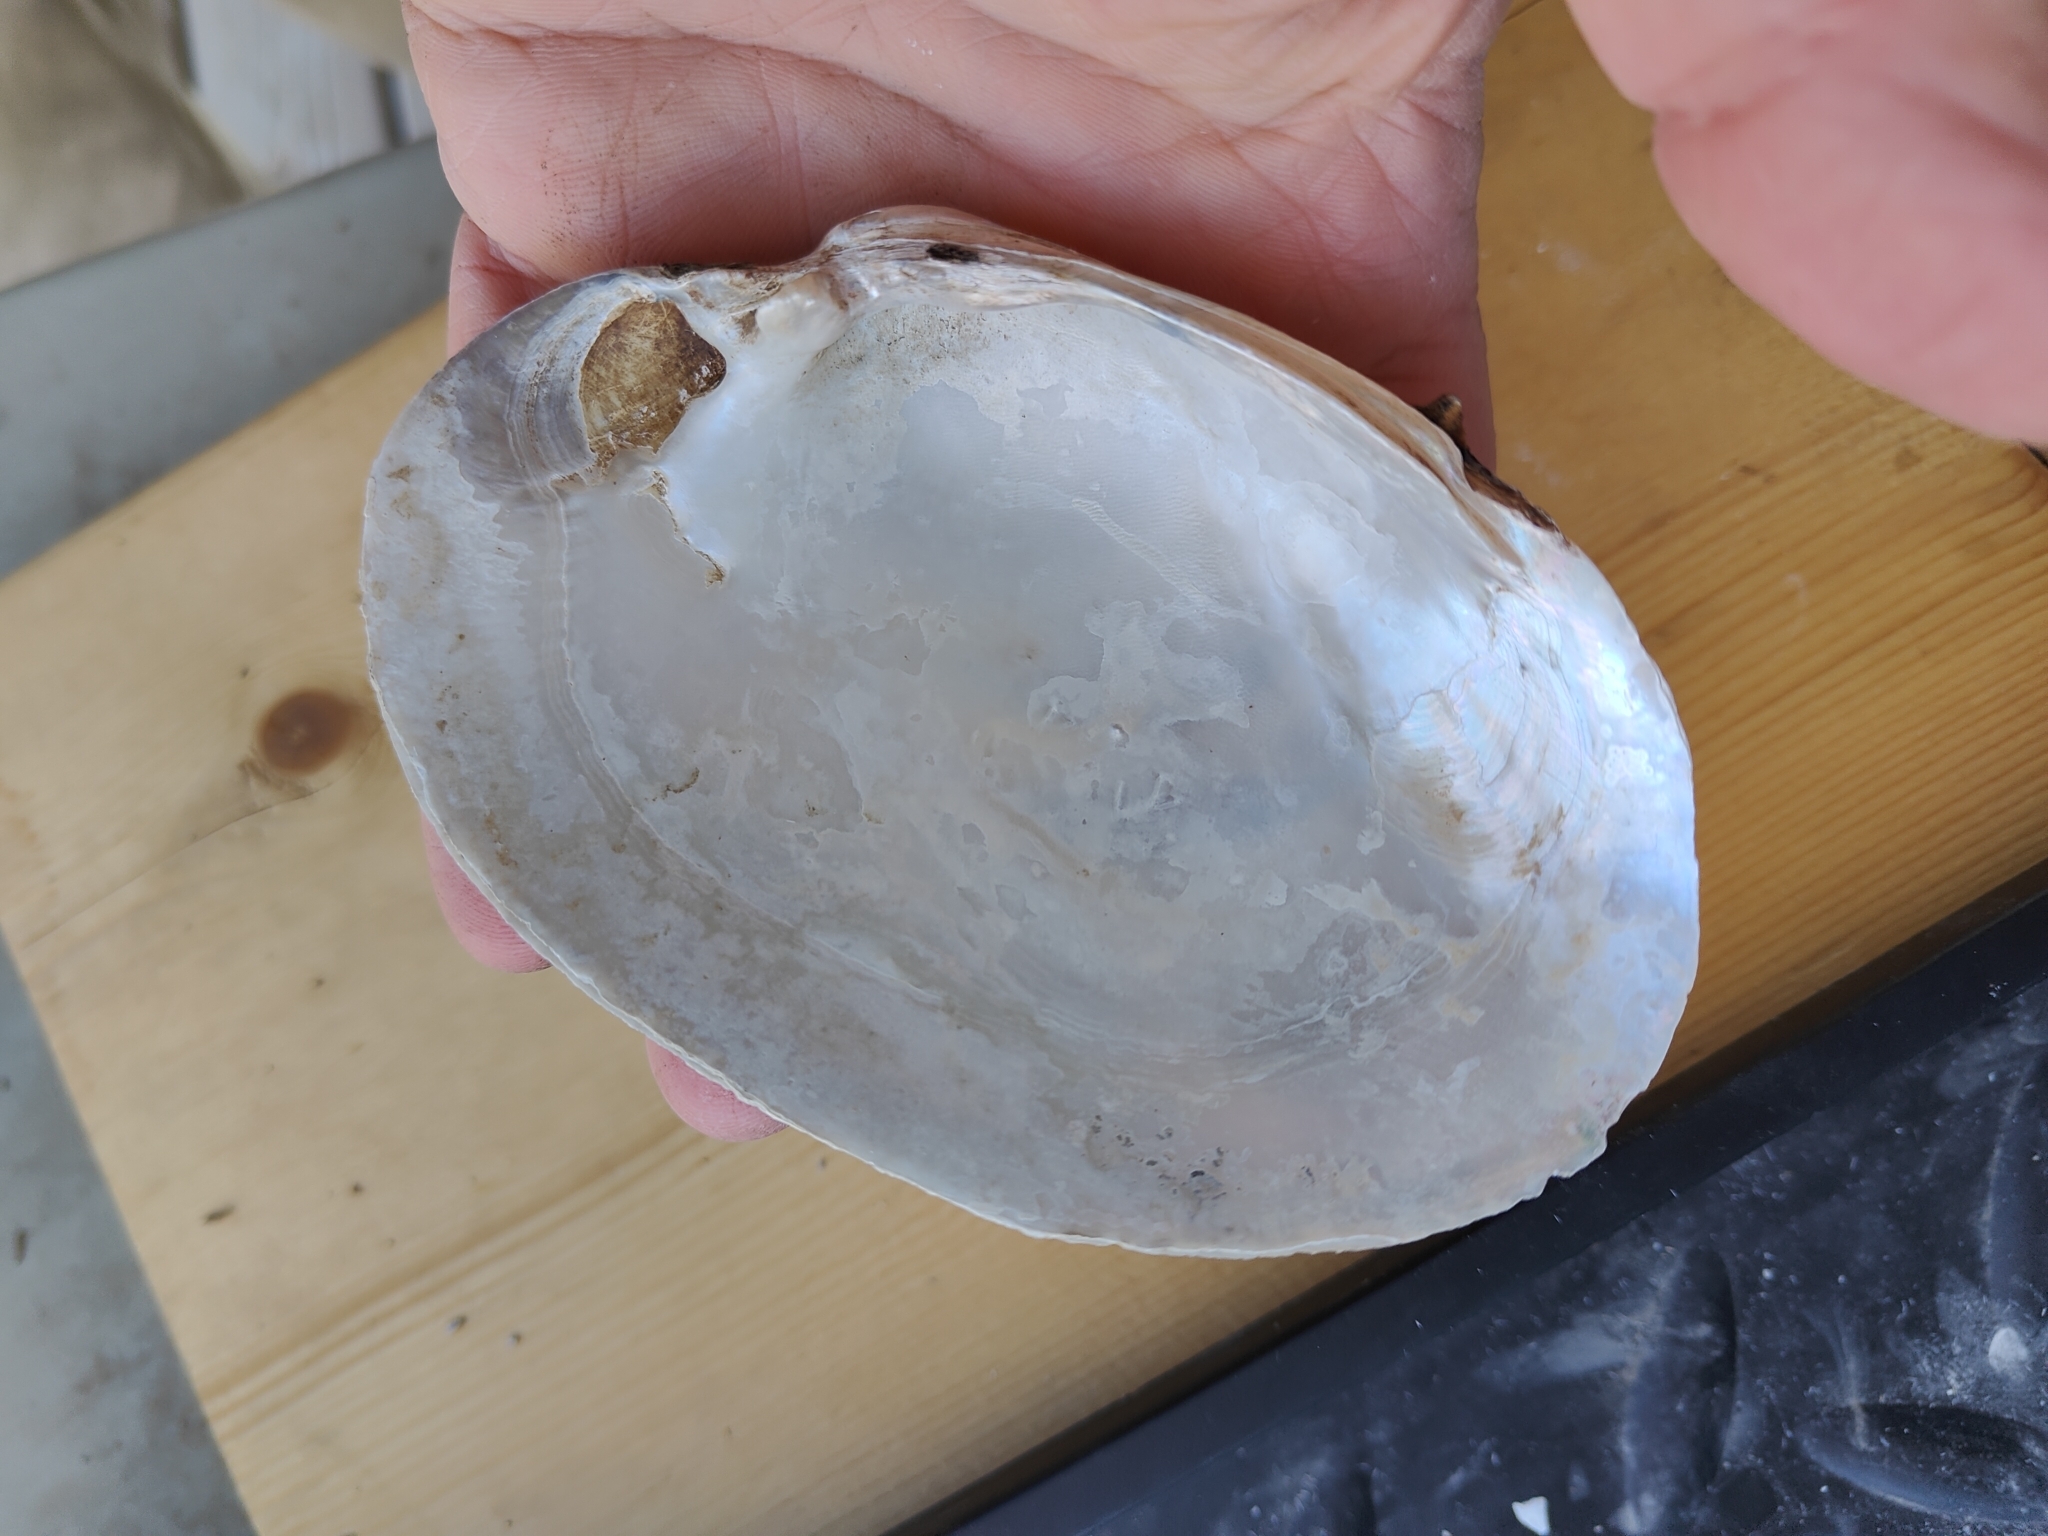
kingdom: Animalia
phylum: Mollusca
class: Bivalvia
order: Unionida
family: Unionidae
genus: Lampsilis
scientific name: Lampsilis cardium
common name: Plain pocketbook
